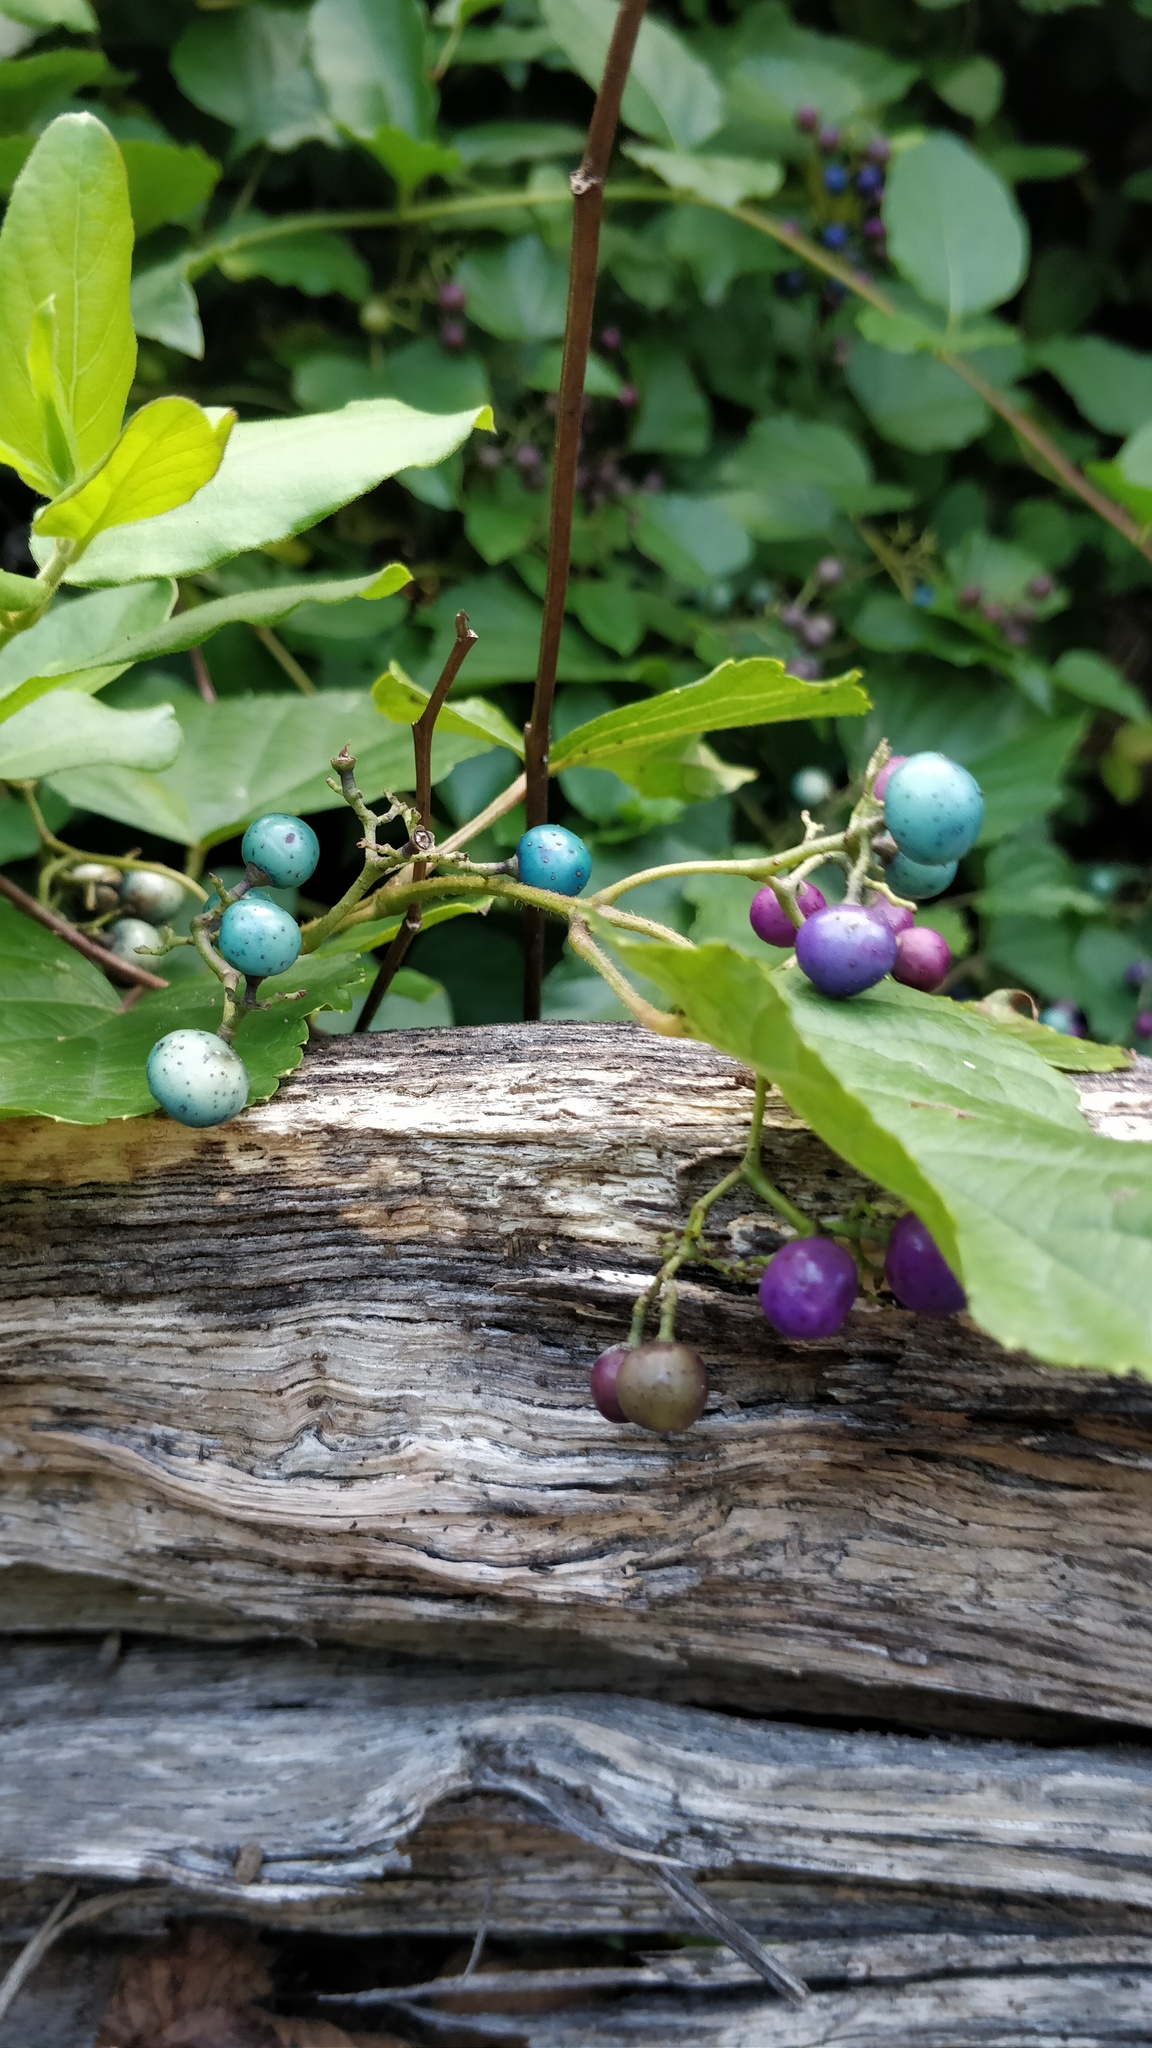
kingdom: Plantae
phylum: Tracheophyta
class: Magnoliopsida
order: Vitales
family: Vitaceae
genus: Ampelopsis
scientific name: Ampelopsis glandulosa
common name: Amur peppervine
